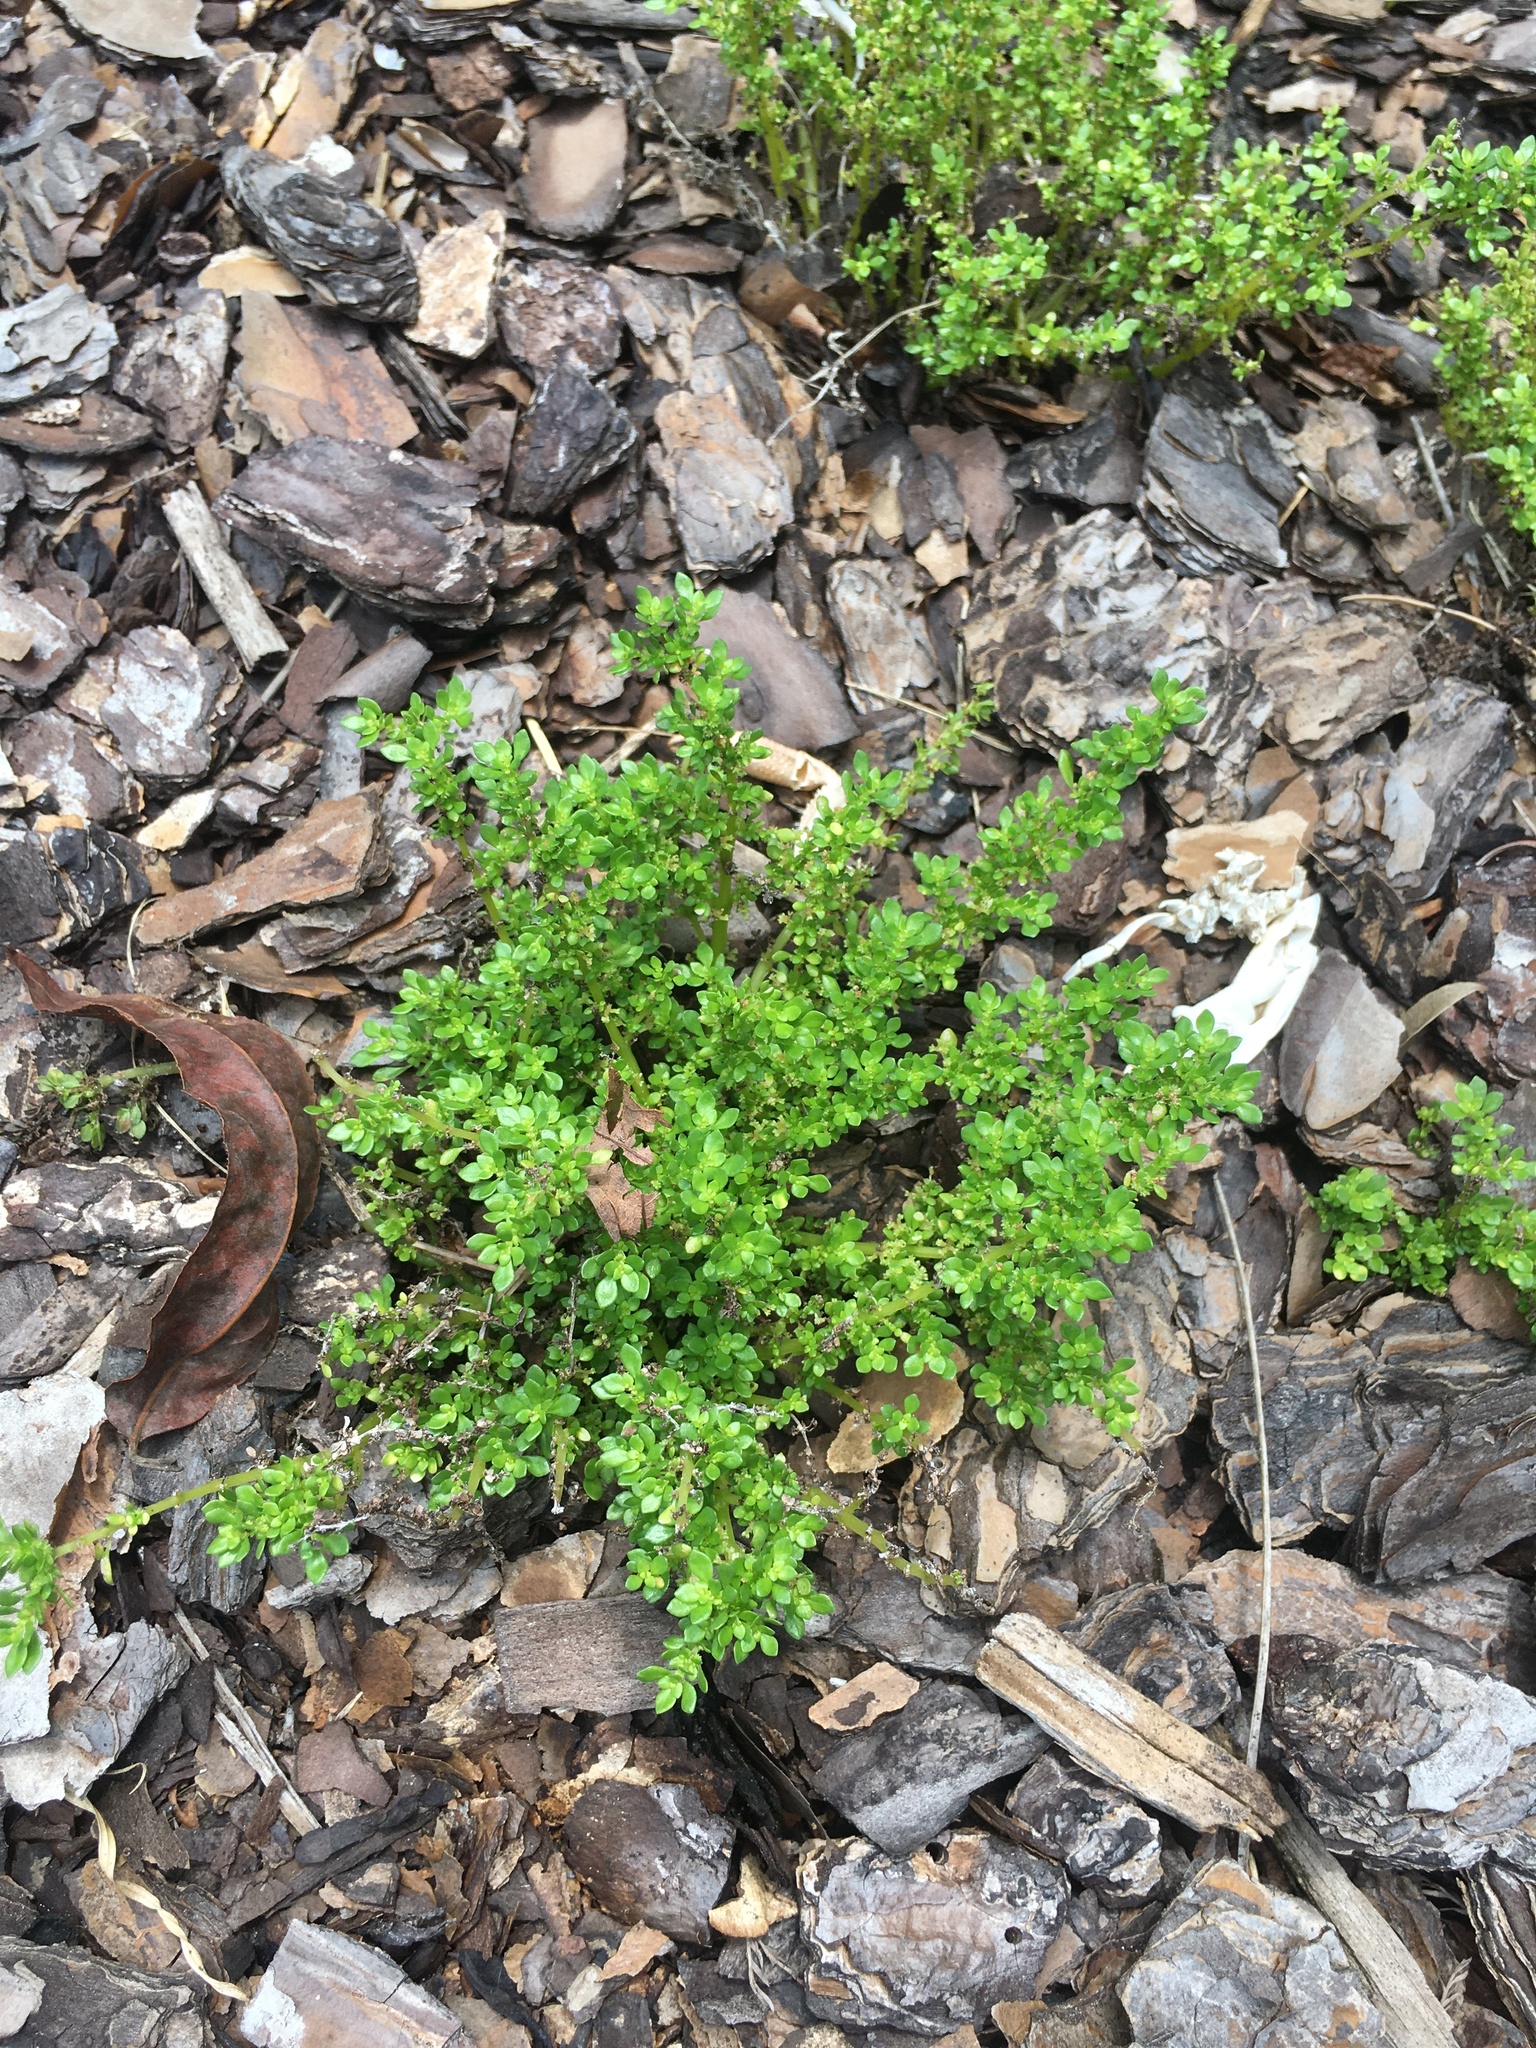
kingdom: Plantae
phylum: Tracheophyta
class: Magnoliopsida
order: Rosales
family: Urticaceae
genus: Pilea
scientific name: Pilea microphylla
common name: Artillery-plant
